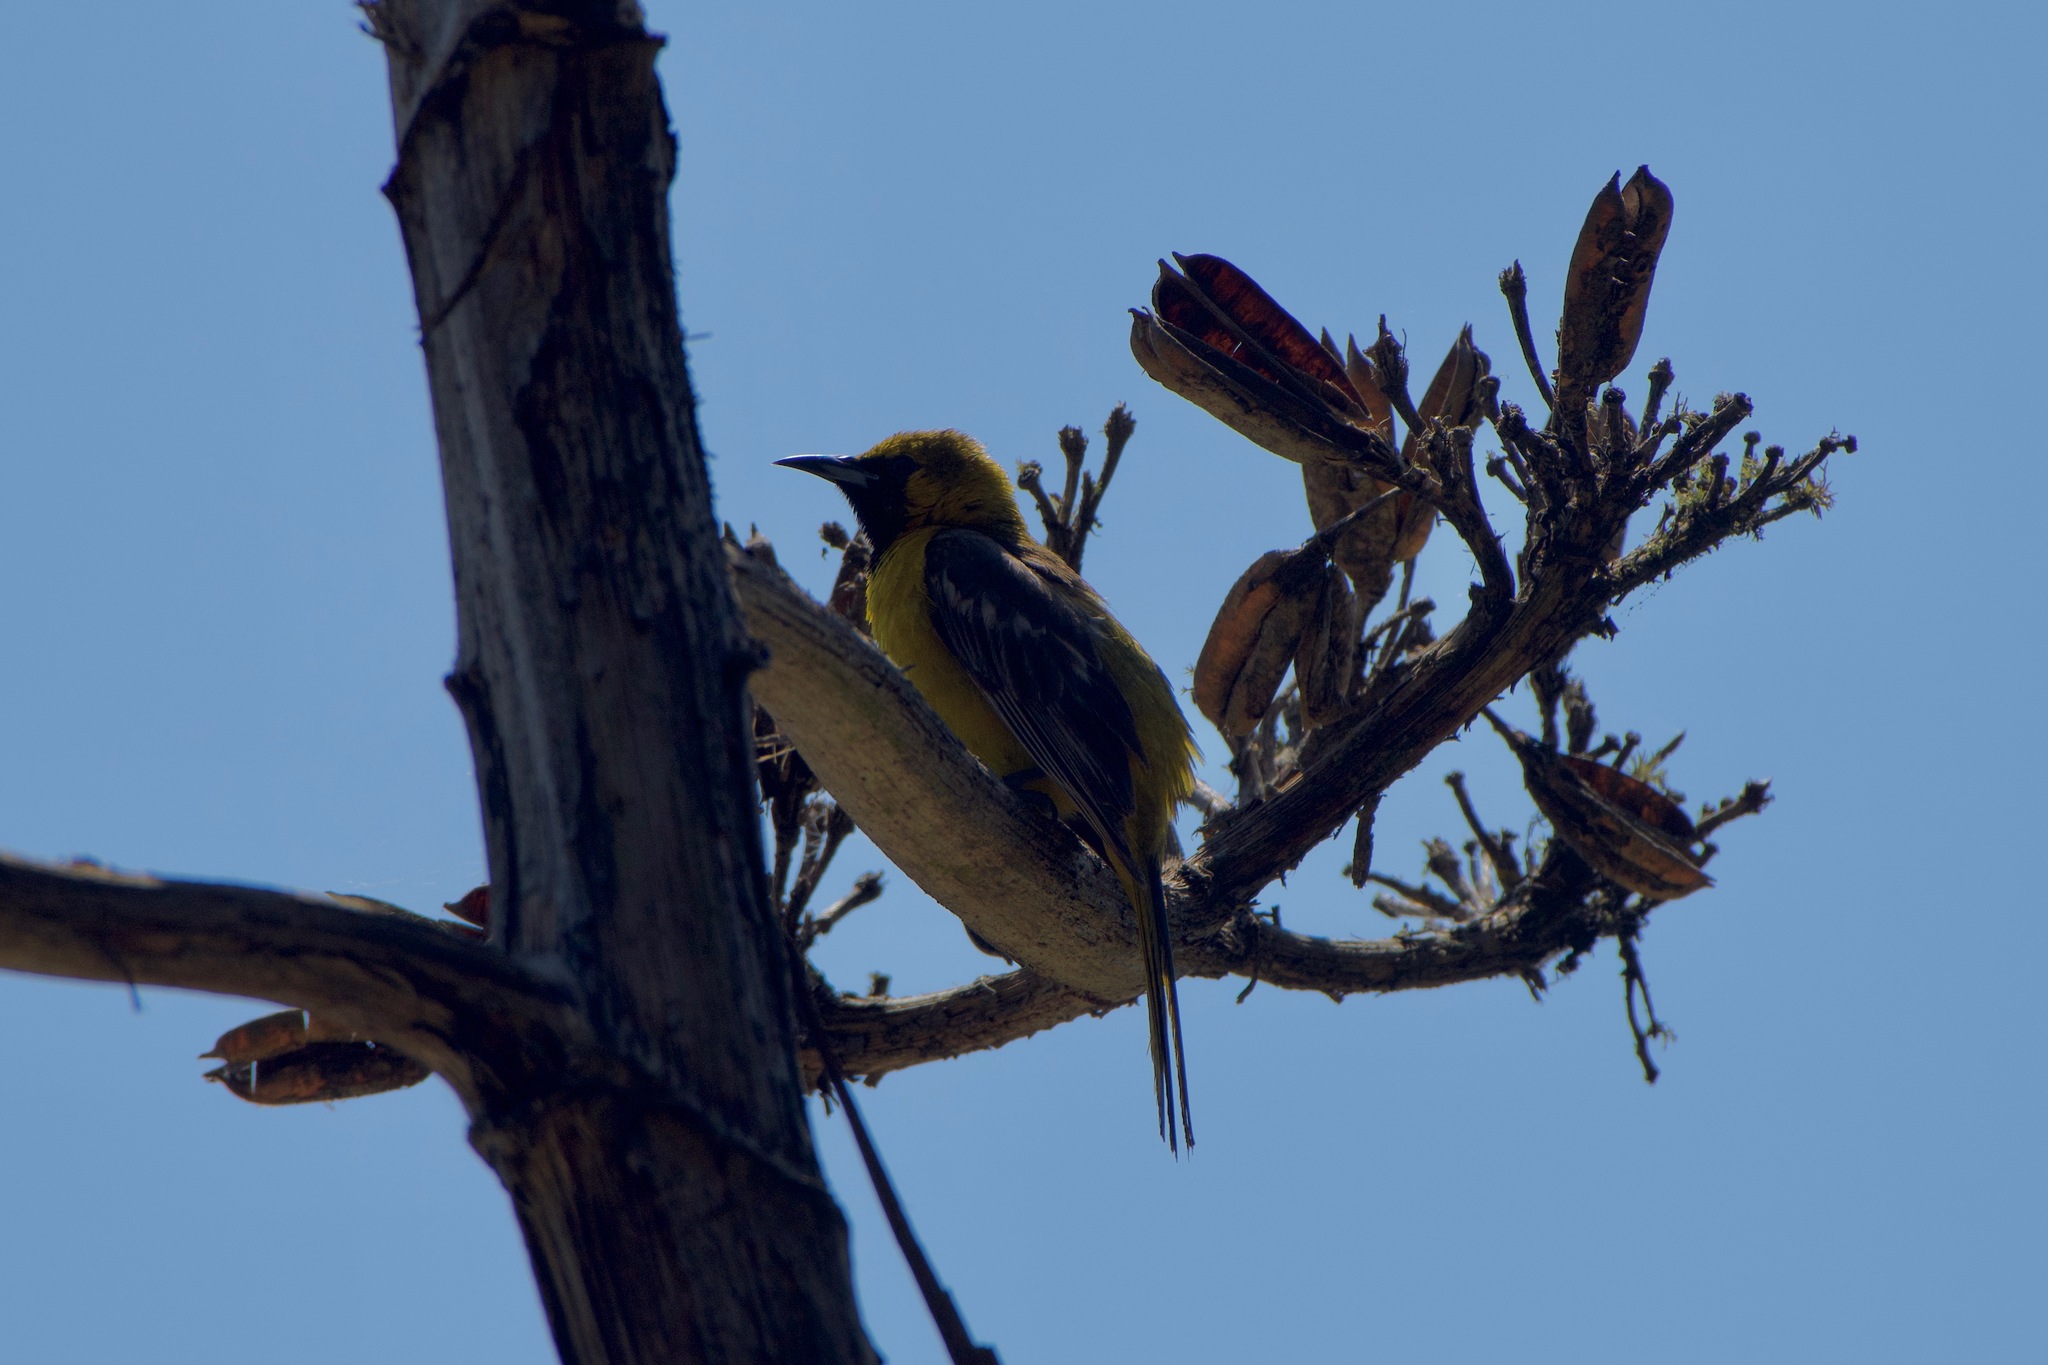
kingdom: Animalia
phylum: Chordata
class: Aves
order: Passeriformes
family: Icteridae
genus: Icterus
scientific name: Icterus cucullatus
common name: Hooded oriole
